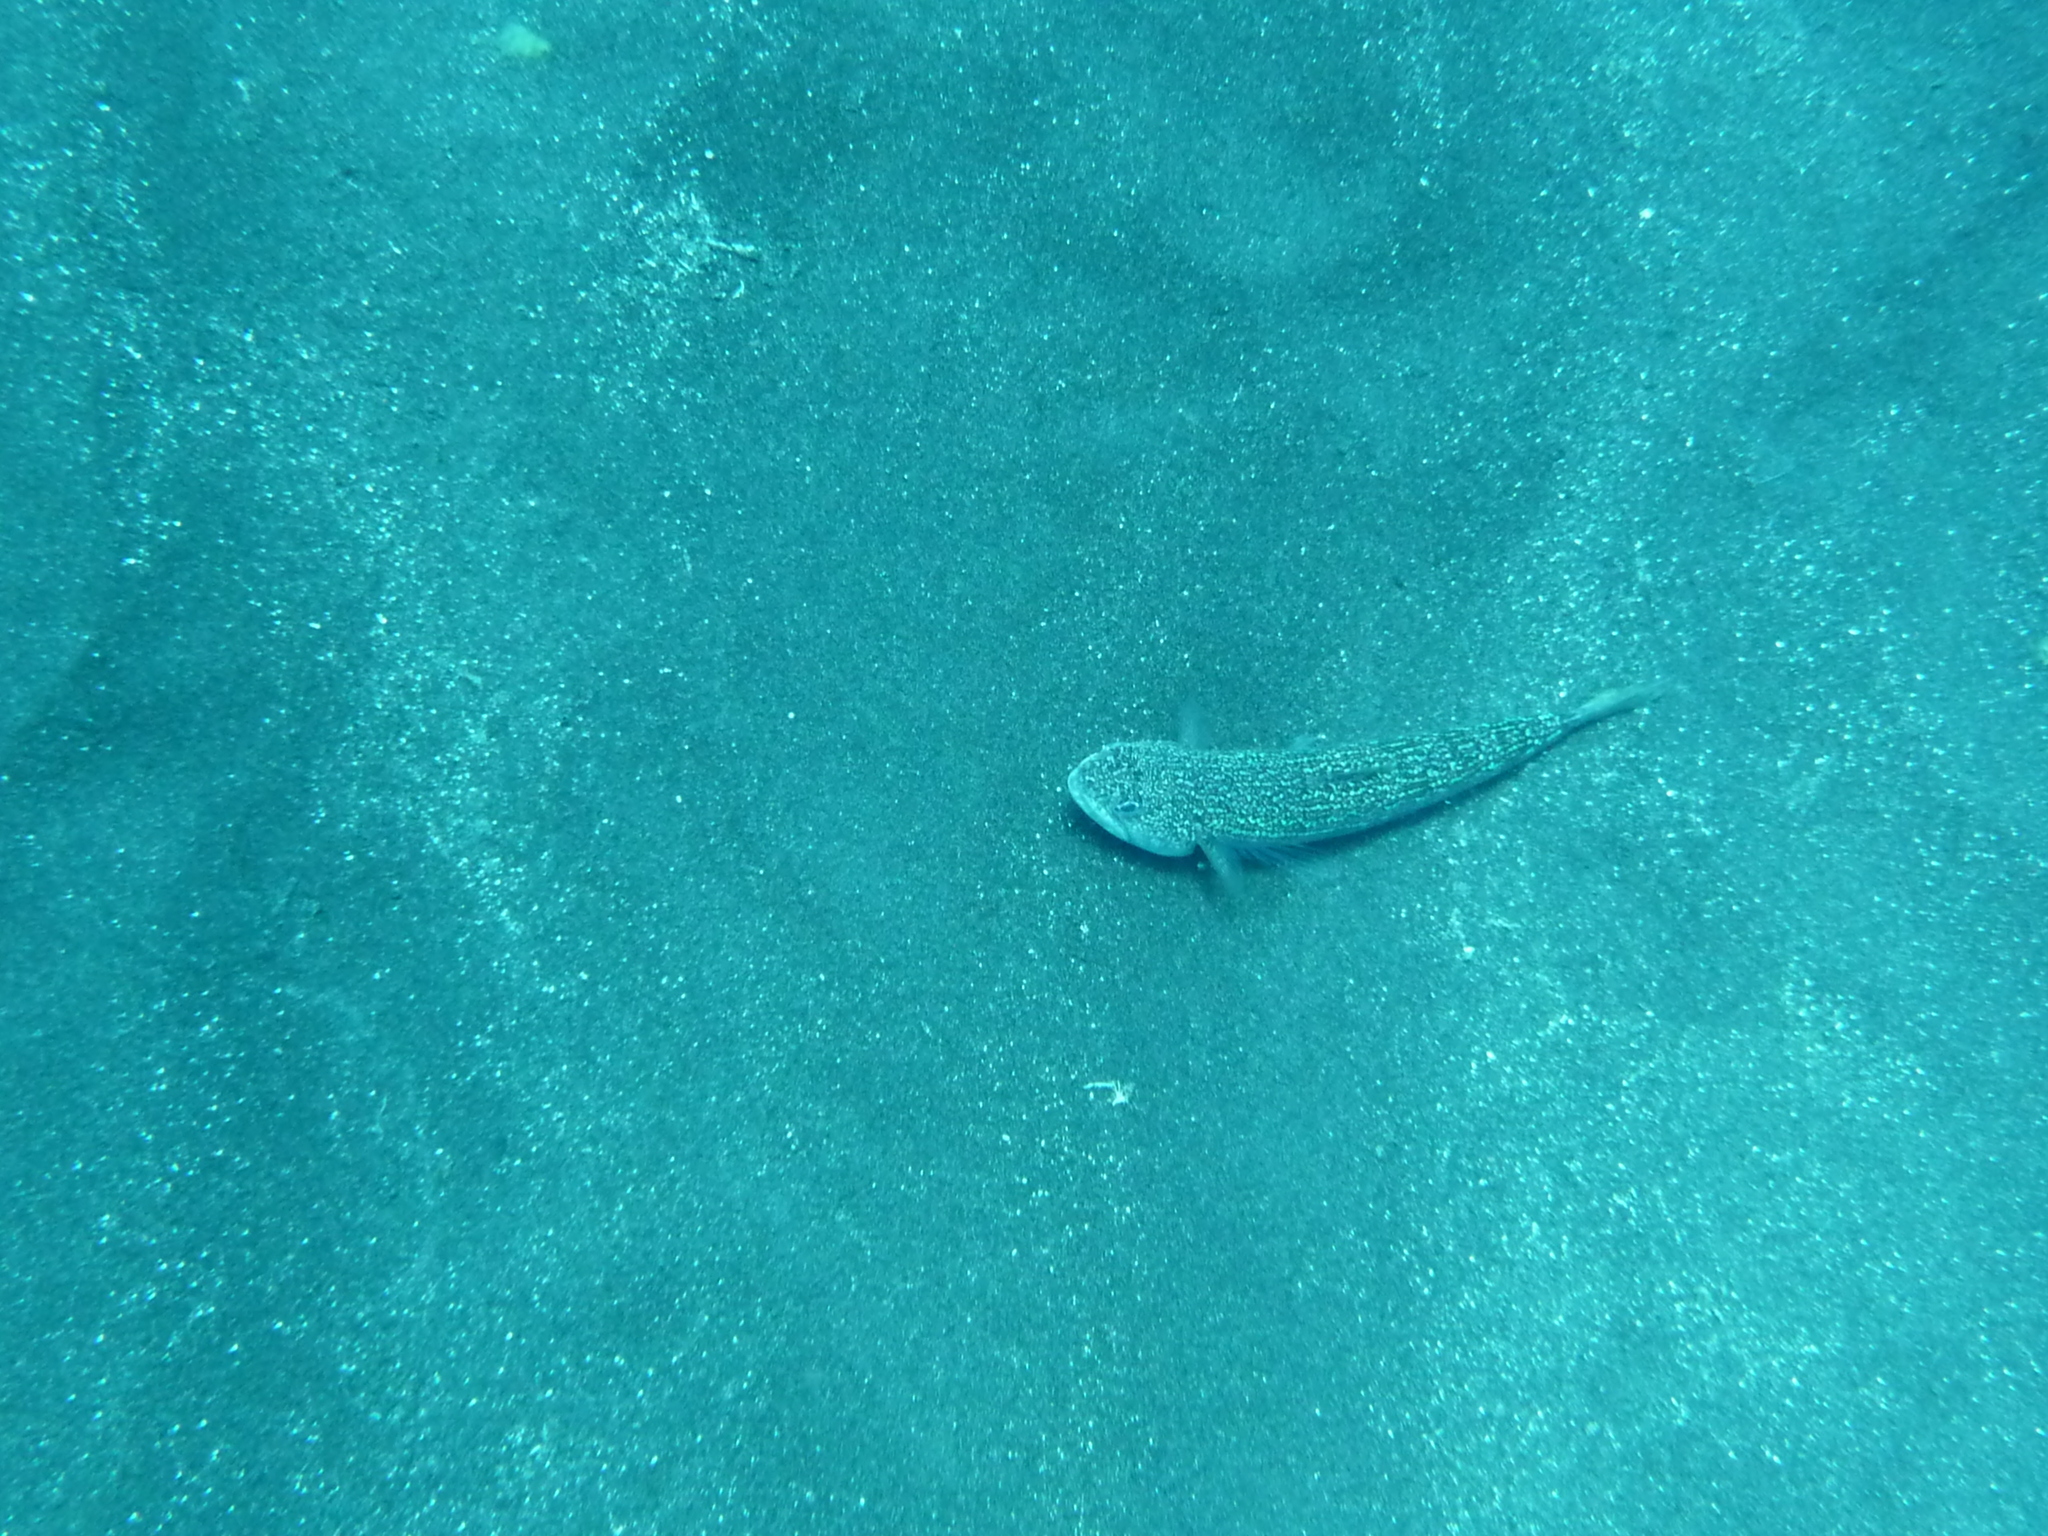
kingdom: Animalia
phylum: Chordata
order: Aulopiformes
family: Synodontidae
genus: Synodus
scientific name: Synodus saurus
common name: Atlantic lizardfish
